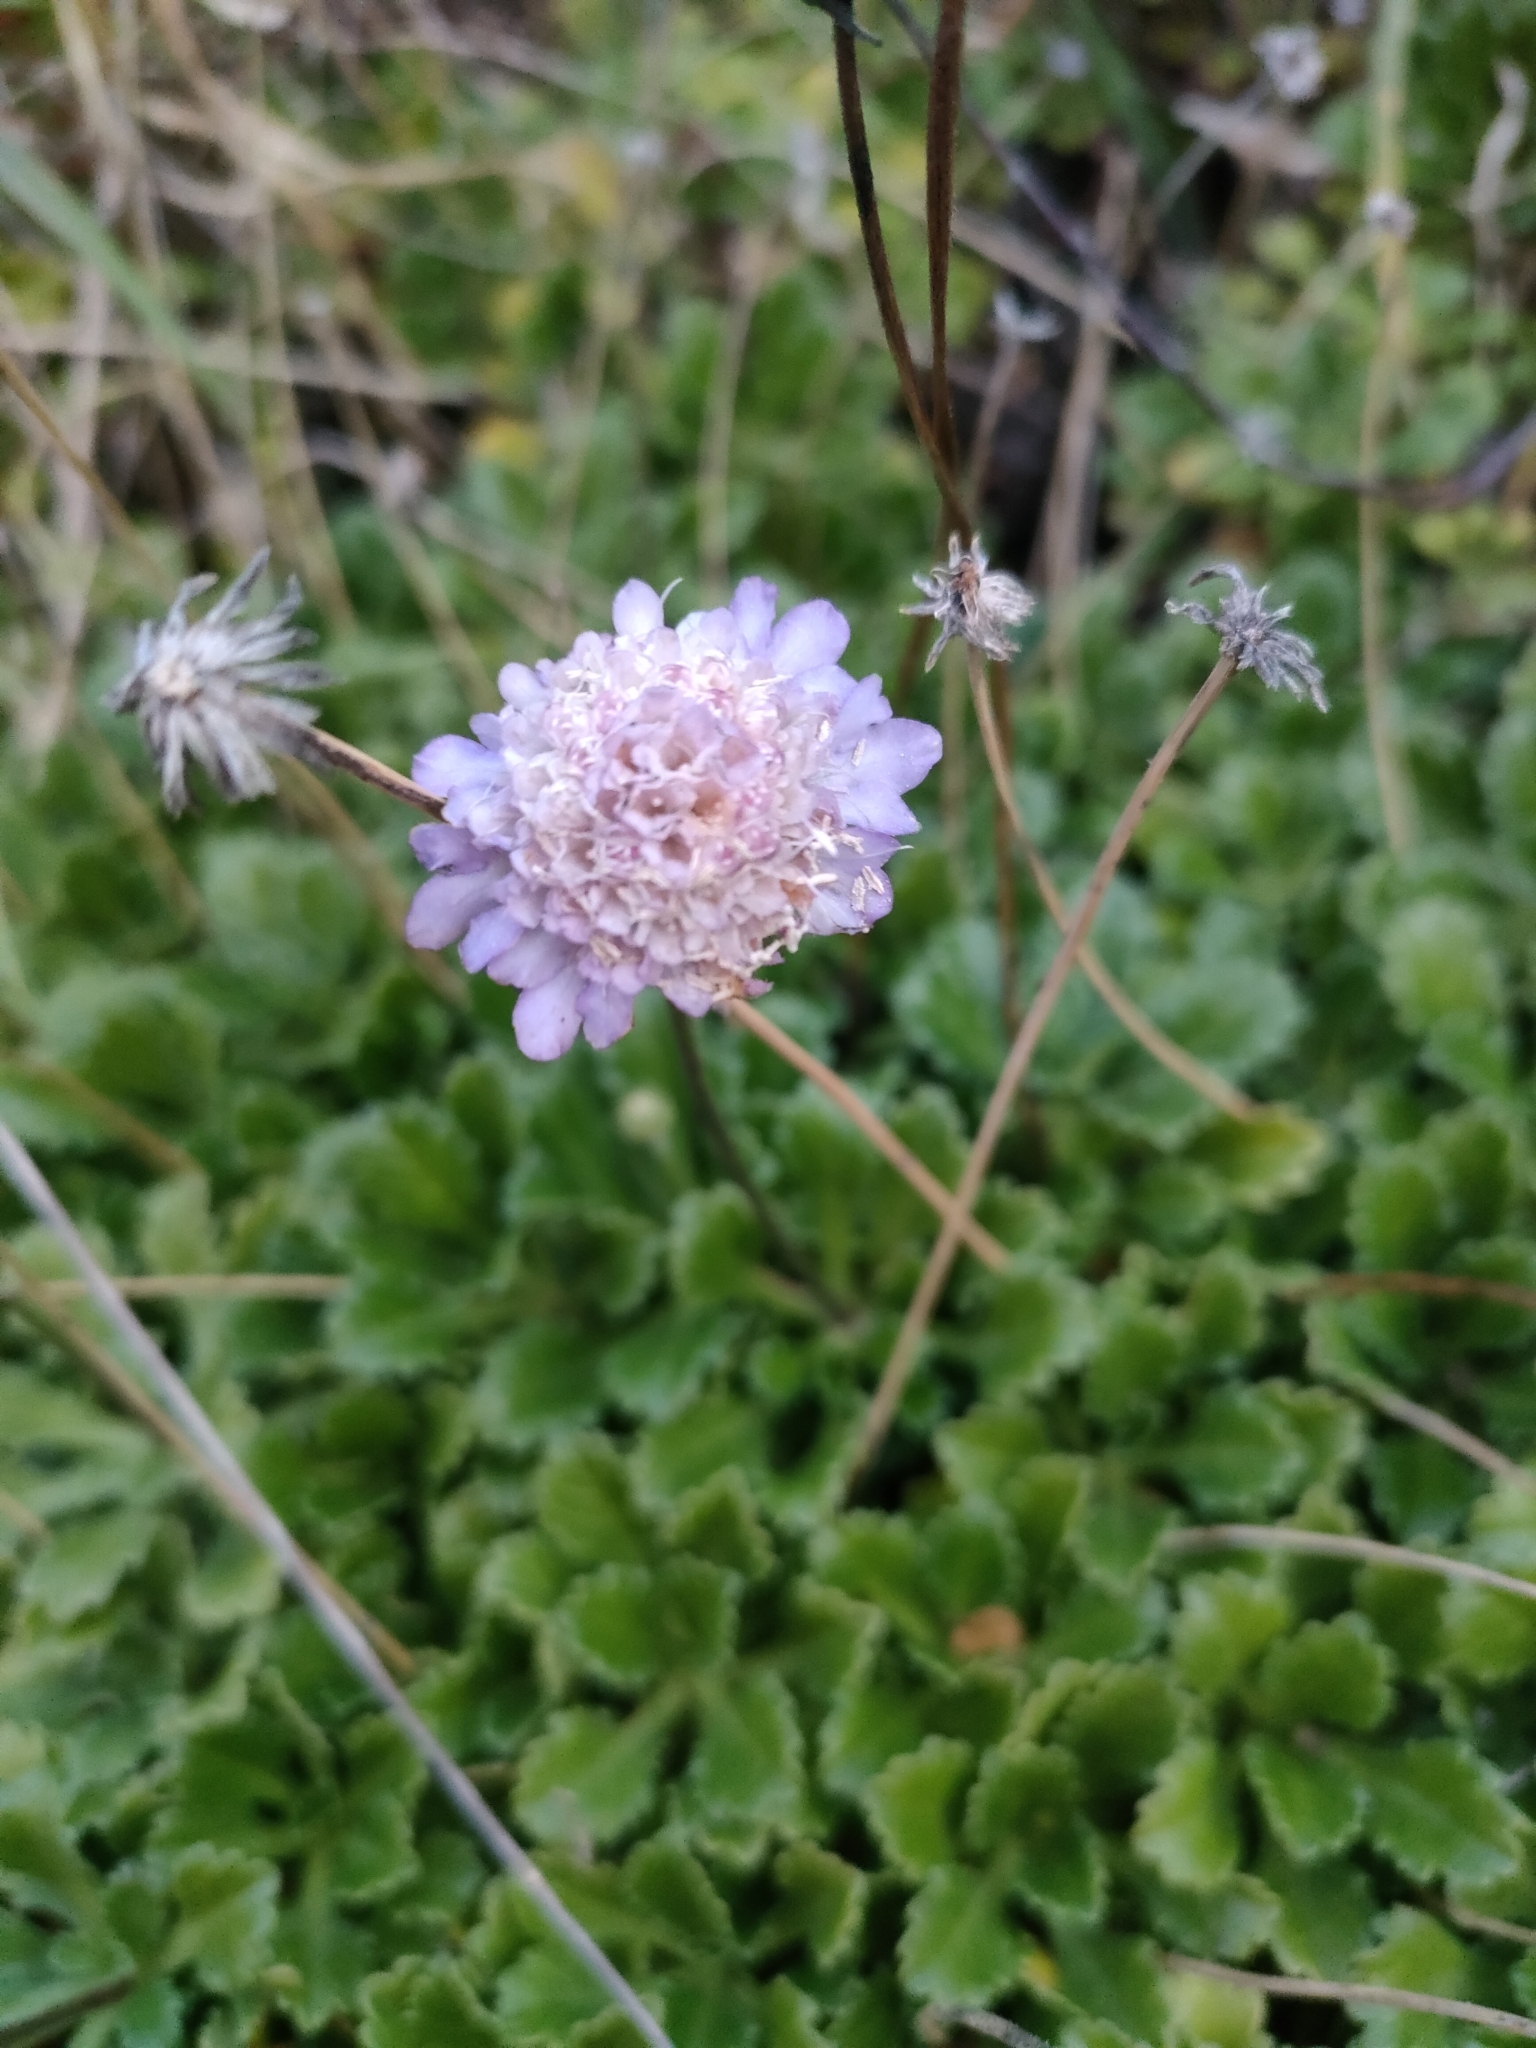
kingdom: Plantae
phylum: Tracheophyta
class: Magnoliopsida
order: Dipsacales
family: Caprifoliaceae
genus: Sixalix
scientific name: Sixalix farinosa
